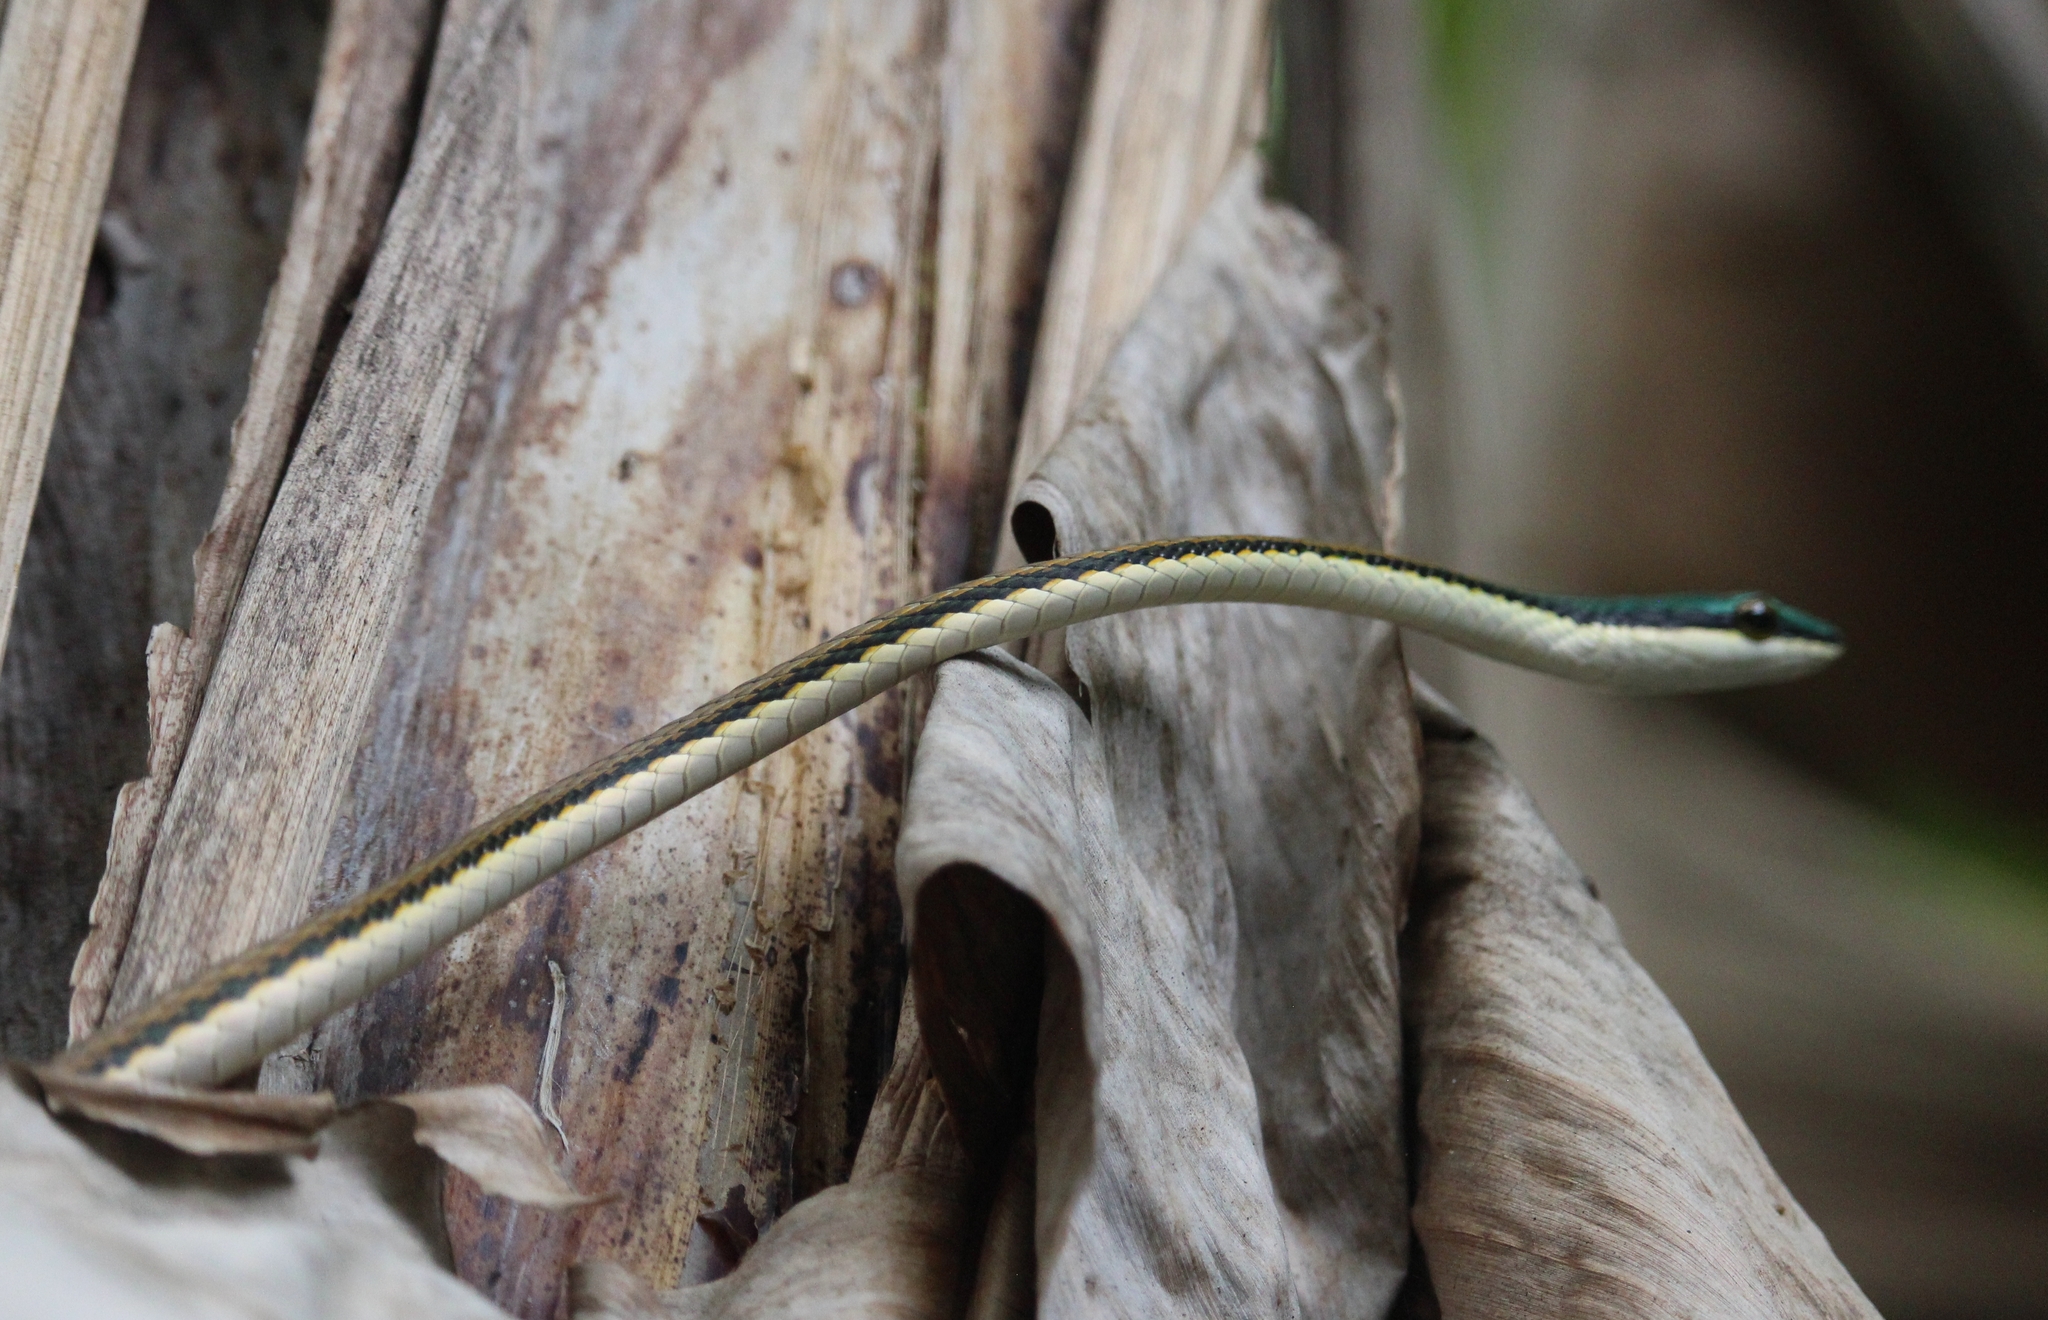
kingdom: Animalia
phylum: Chordata
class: Squamata
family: Colubridae
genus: Leptophis
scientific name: Leptophis mexicanus
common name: Mexican parrot snake
